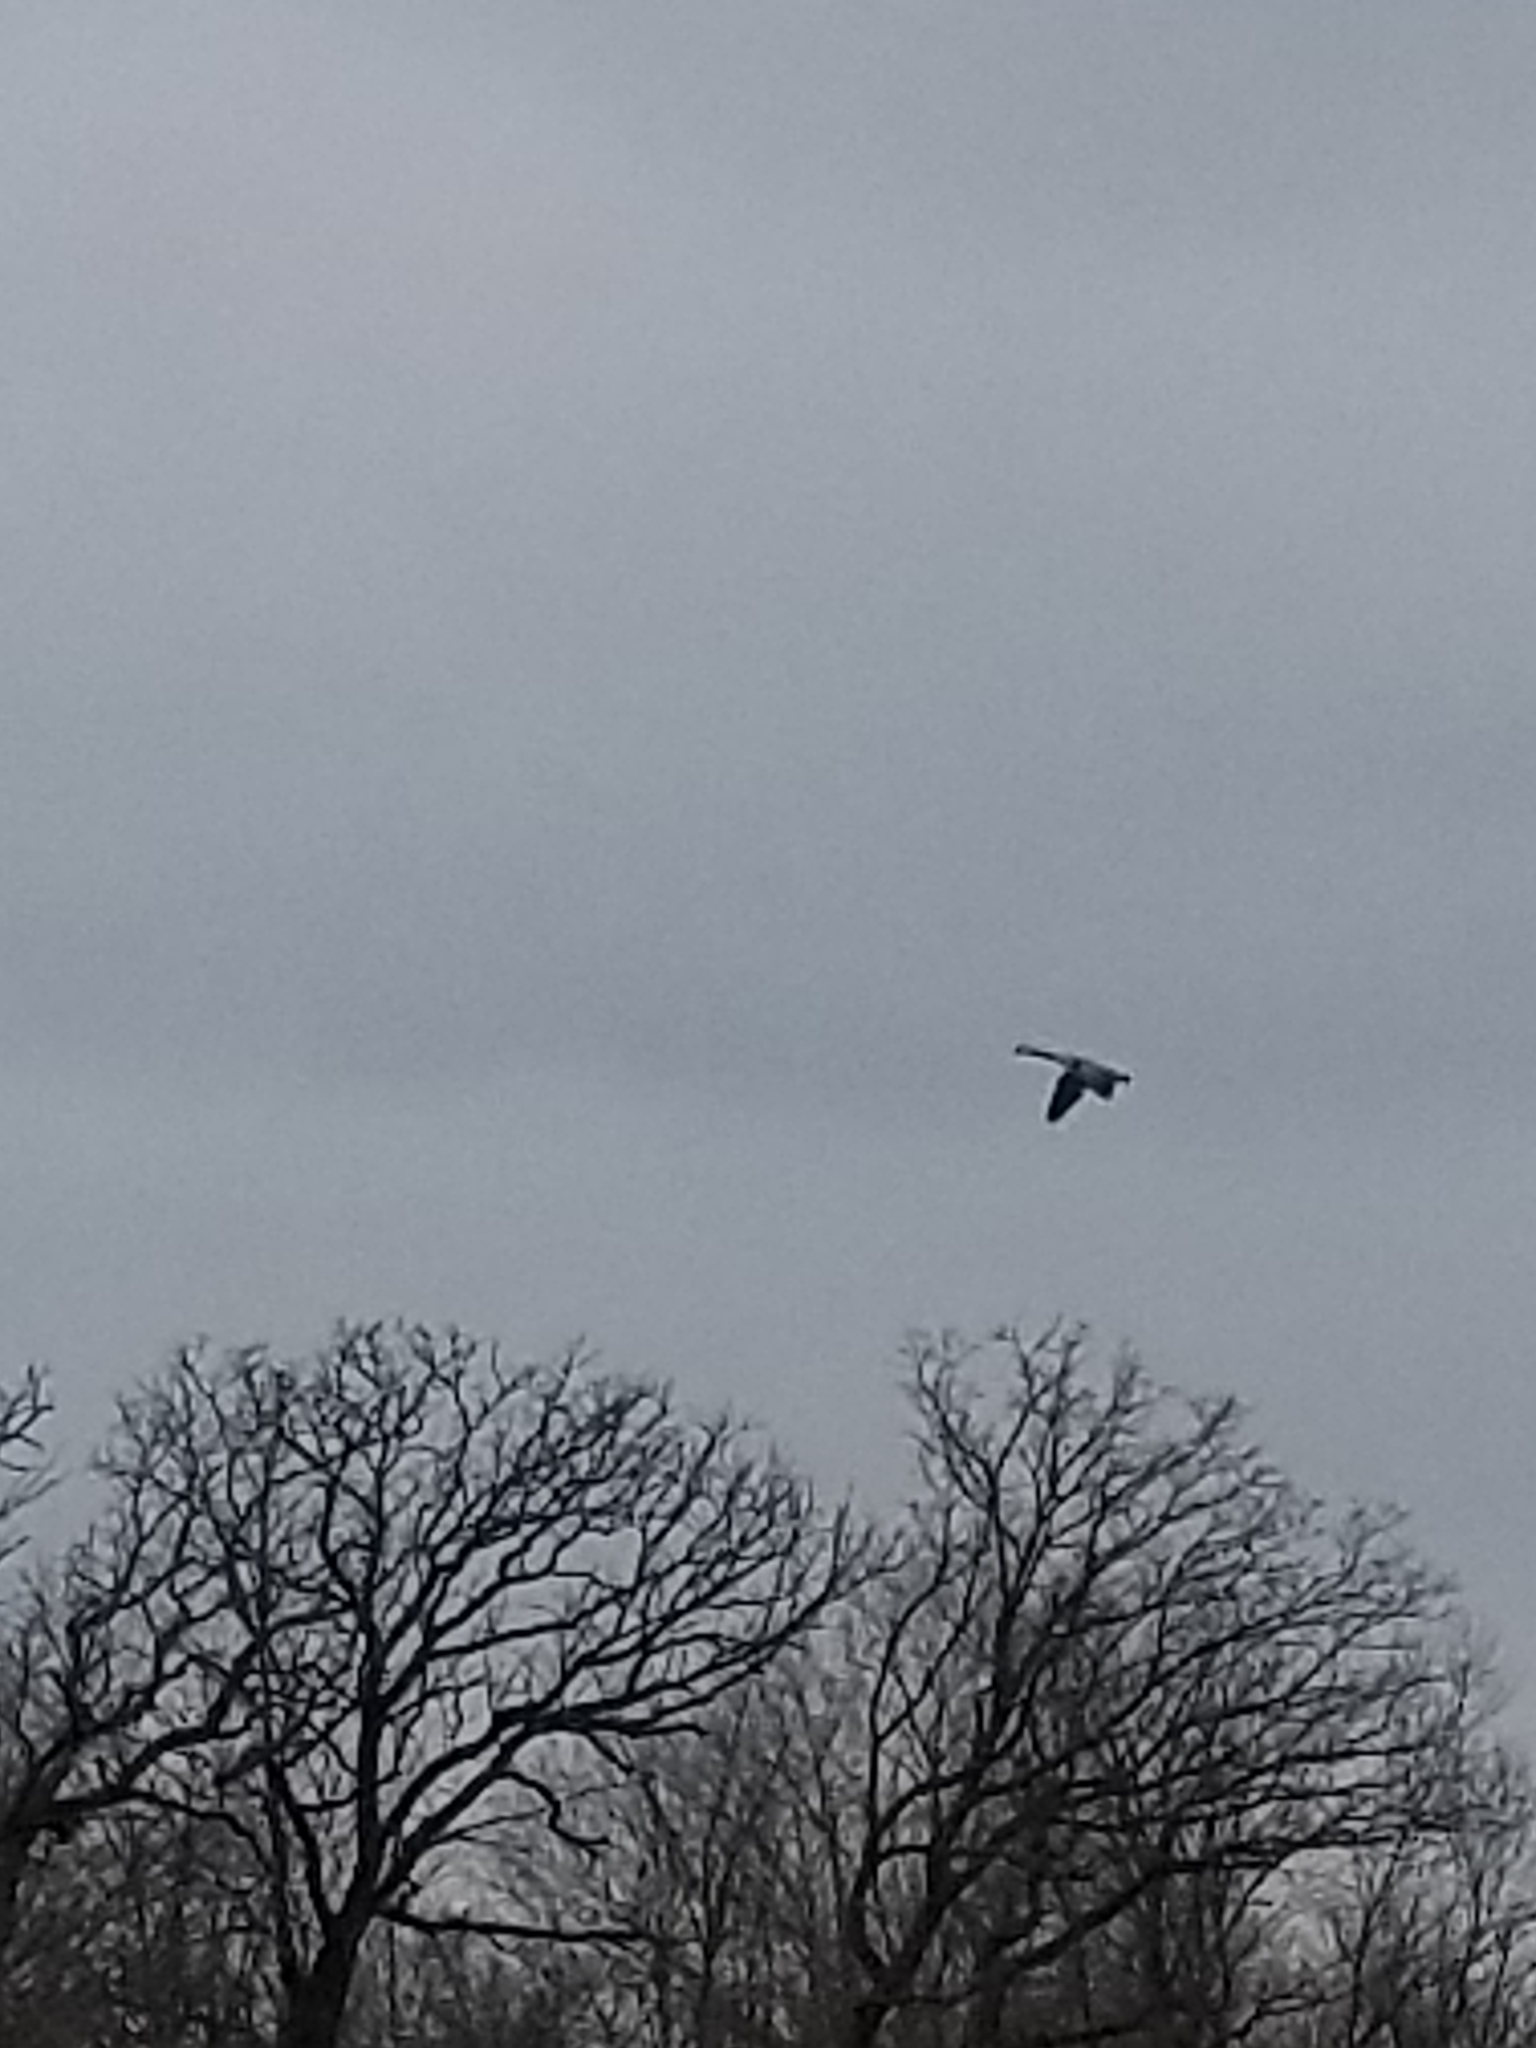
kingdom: Animalia
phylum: Chordata
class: Aves
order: Anseriformes
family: Anatidae
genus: Branta
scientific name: Branta canadensis
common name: Canada goose
